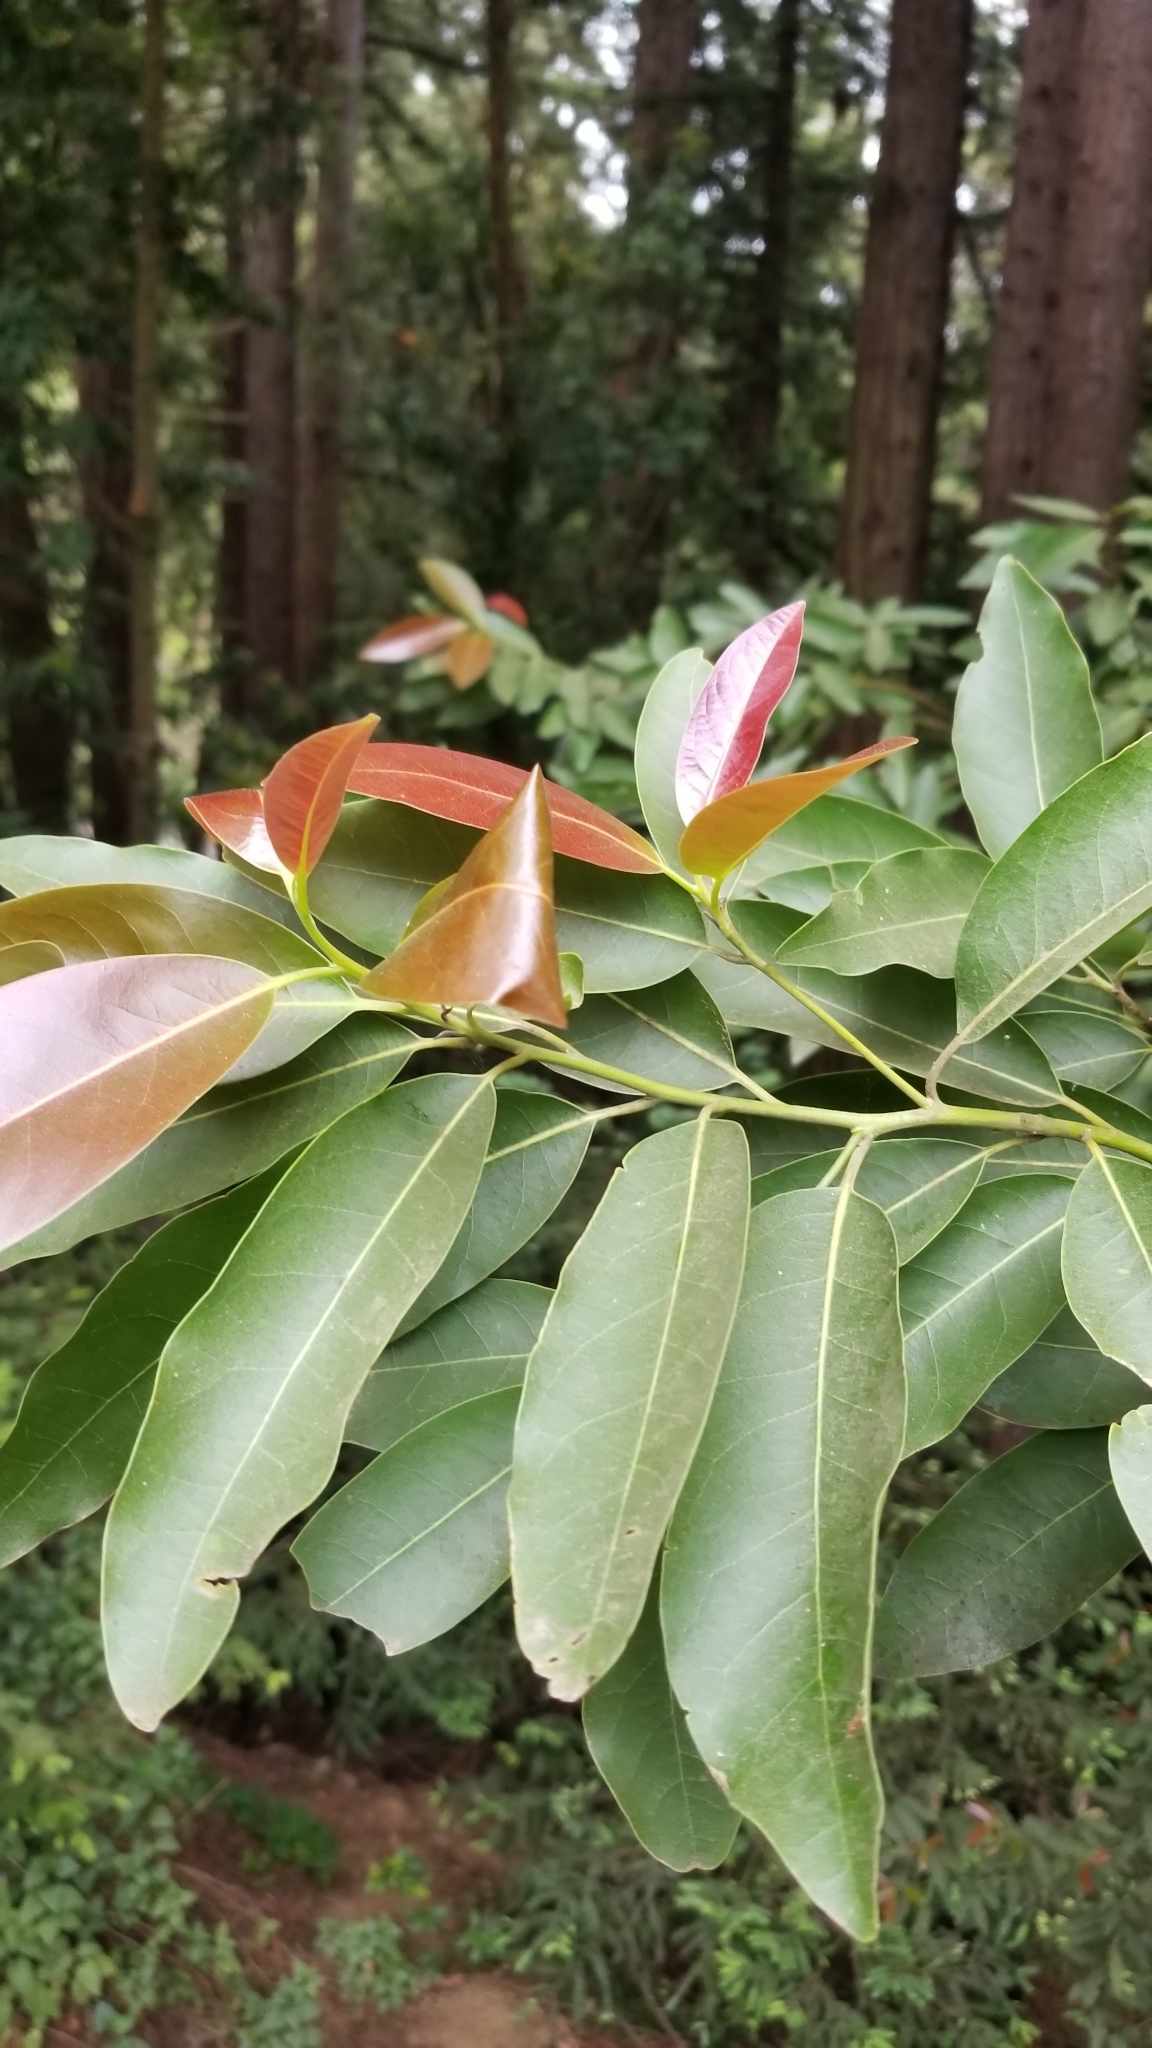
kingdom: Plantae
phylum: Tracheophyta
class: Magnoliopsida
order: Laurales
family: Lauraceae
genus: Umbellularia
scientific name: Umbellularia californica
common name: California bay
